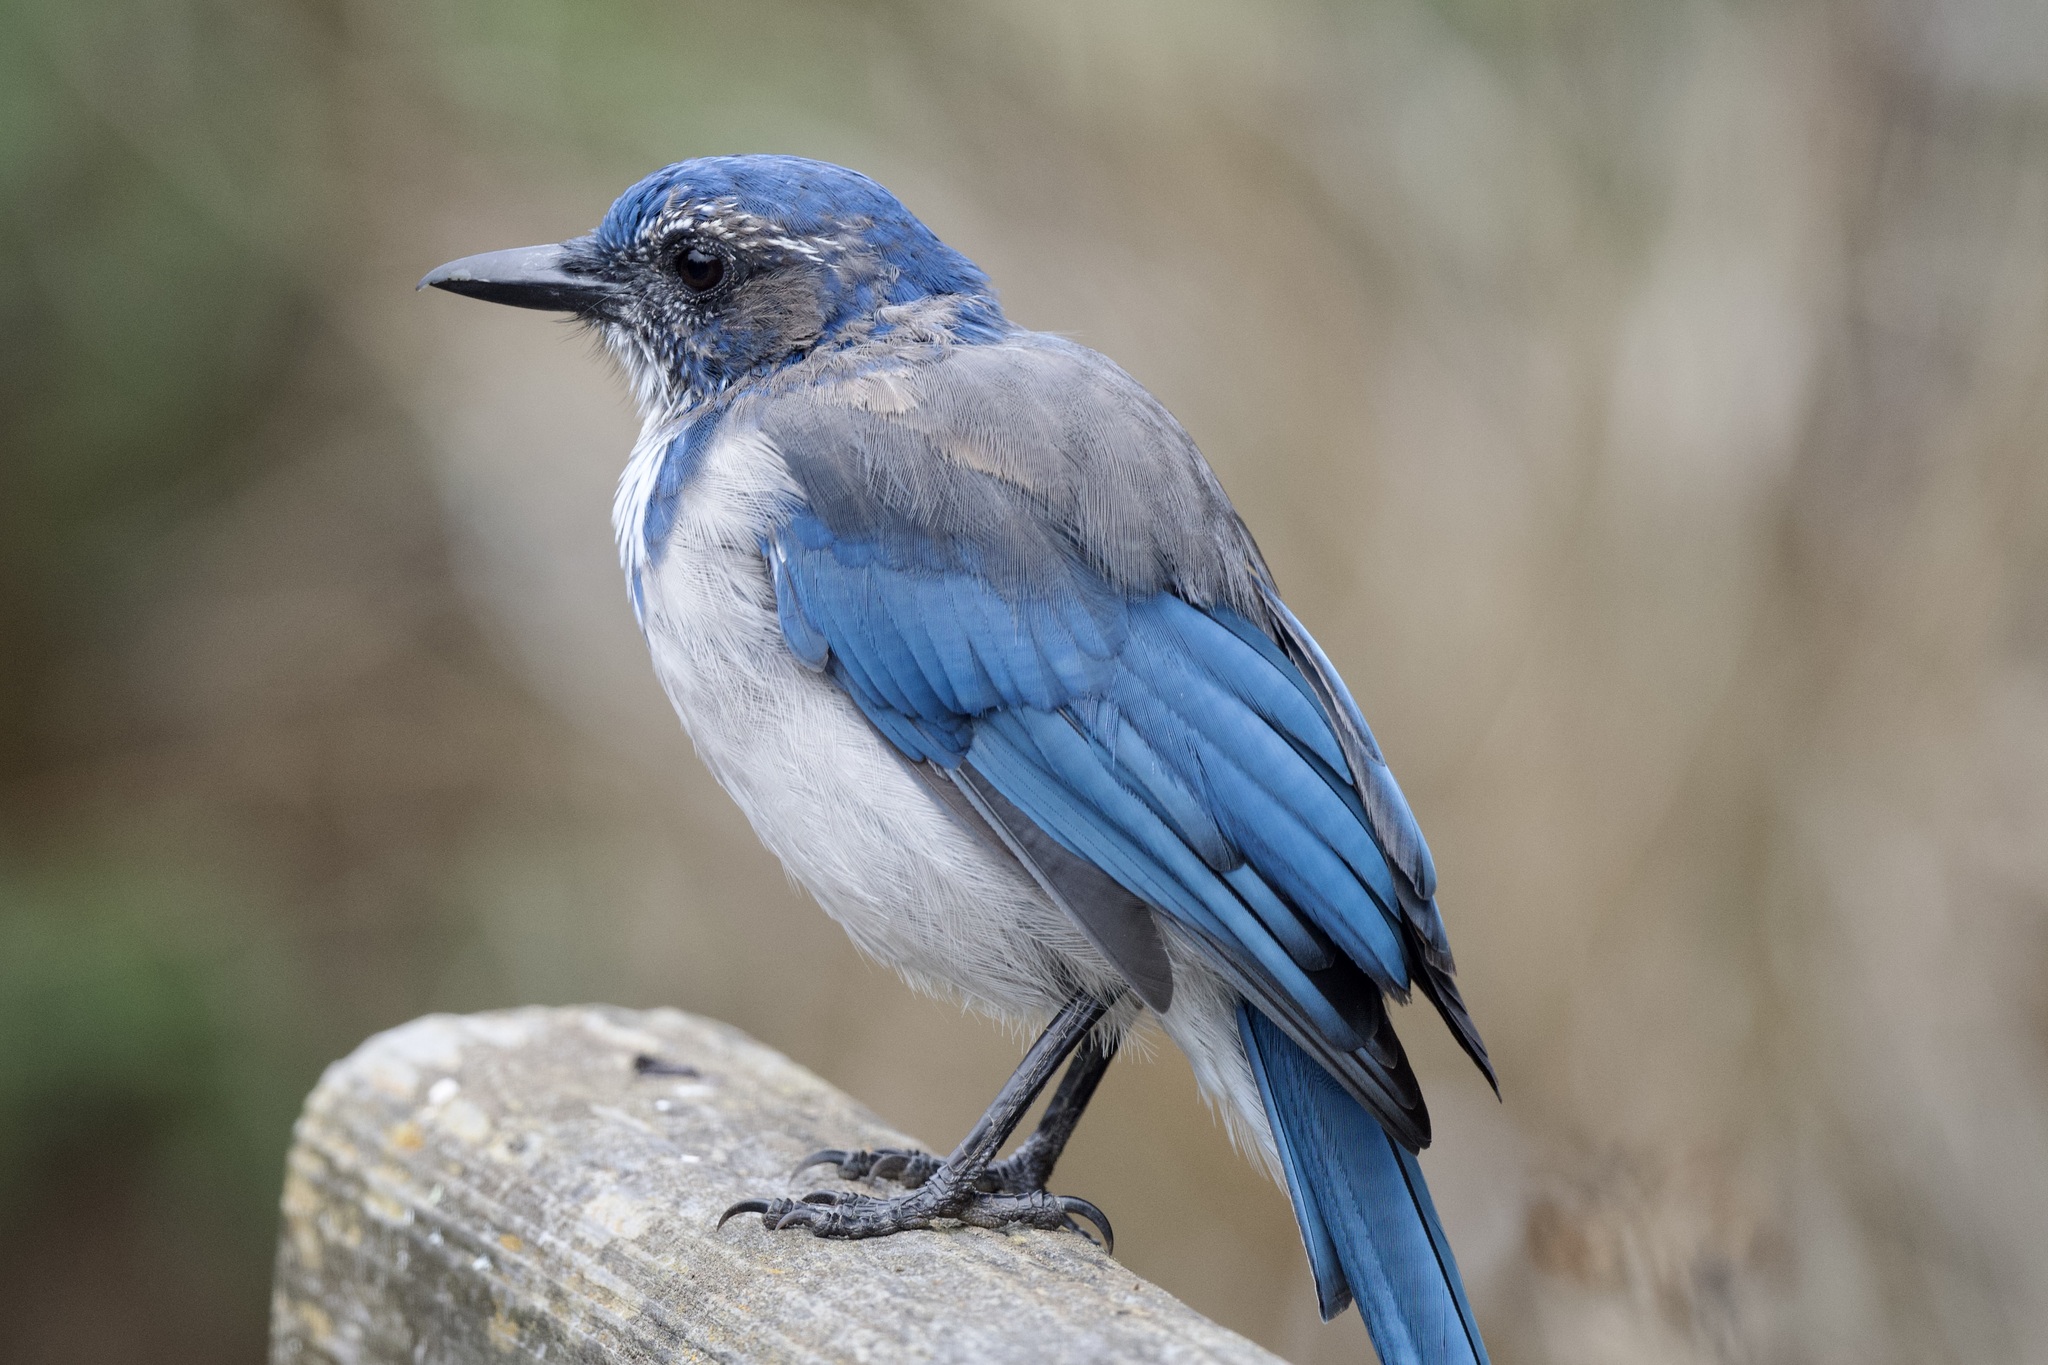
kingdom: Animalia
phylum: Chordata
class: Aves
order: Passeriformes
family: Corvidae
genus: Aphelocoma
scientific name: Aphelocoma californica
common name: California scrub-jay
